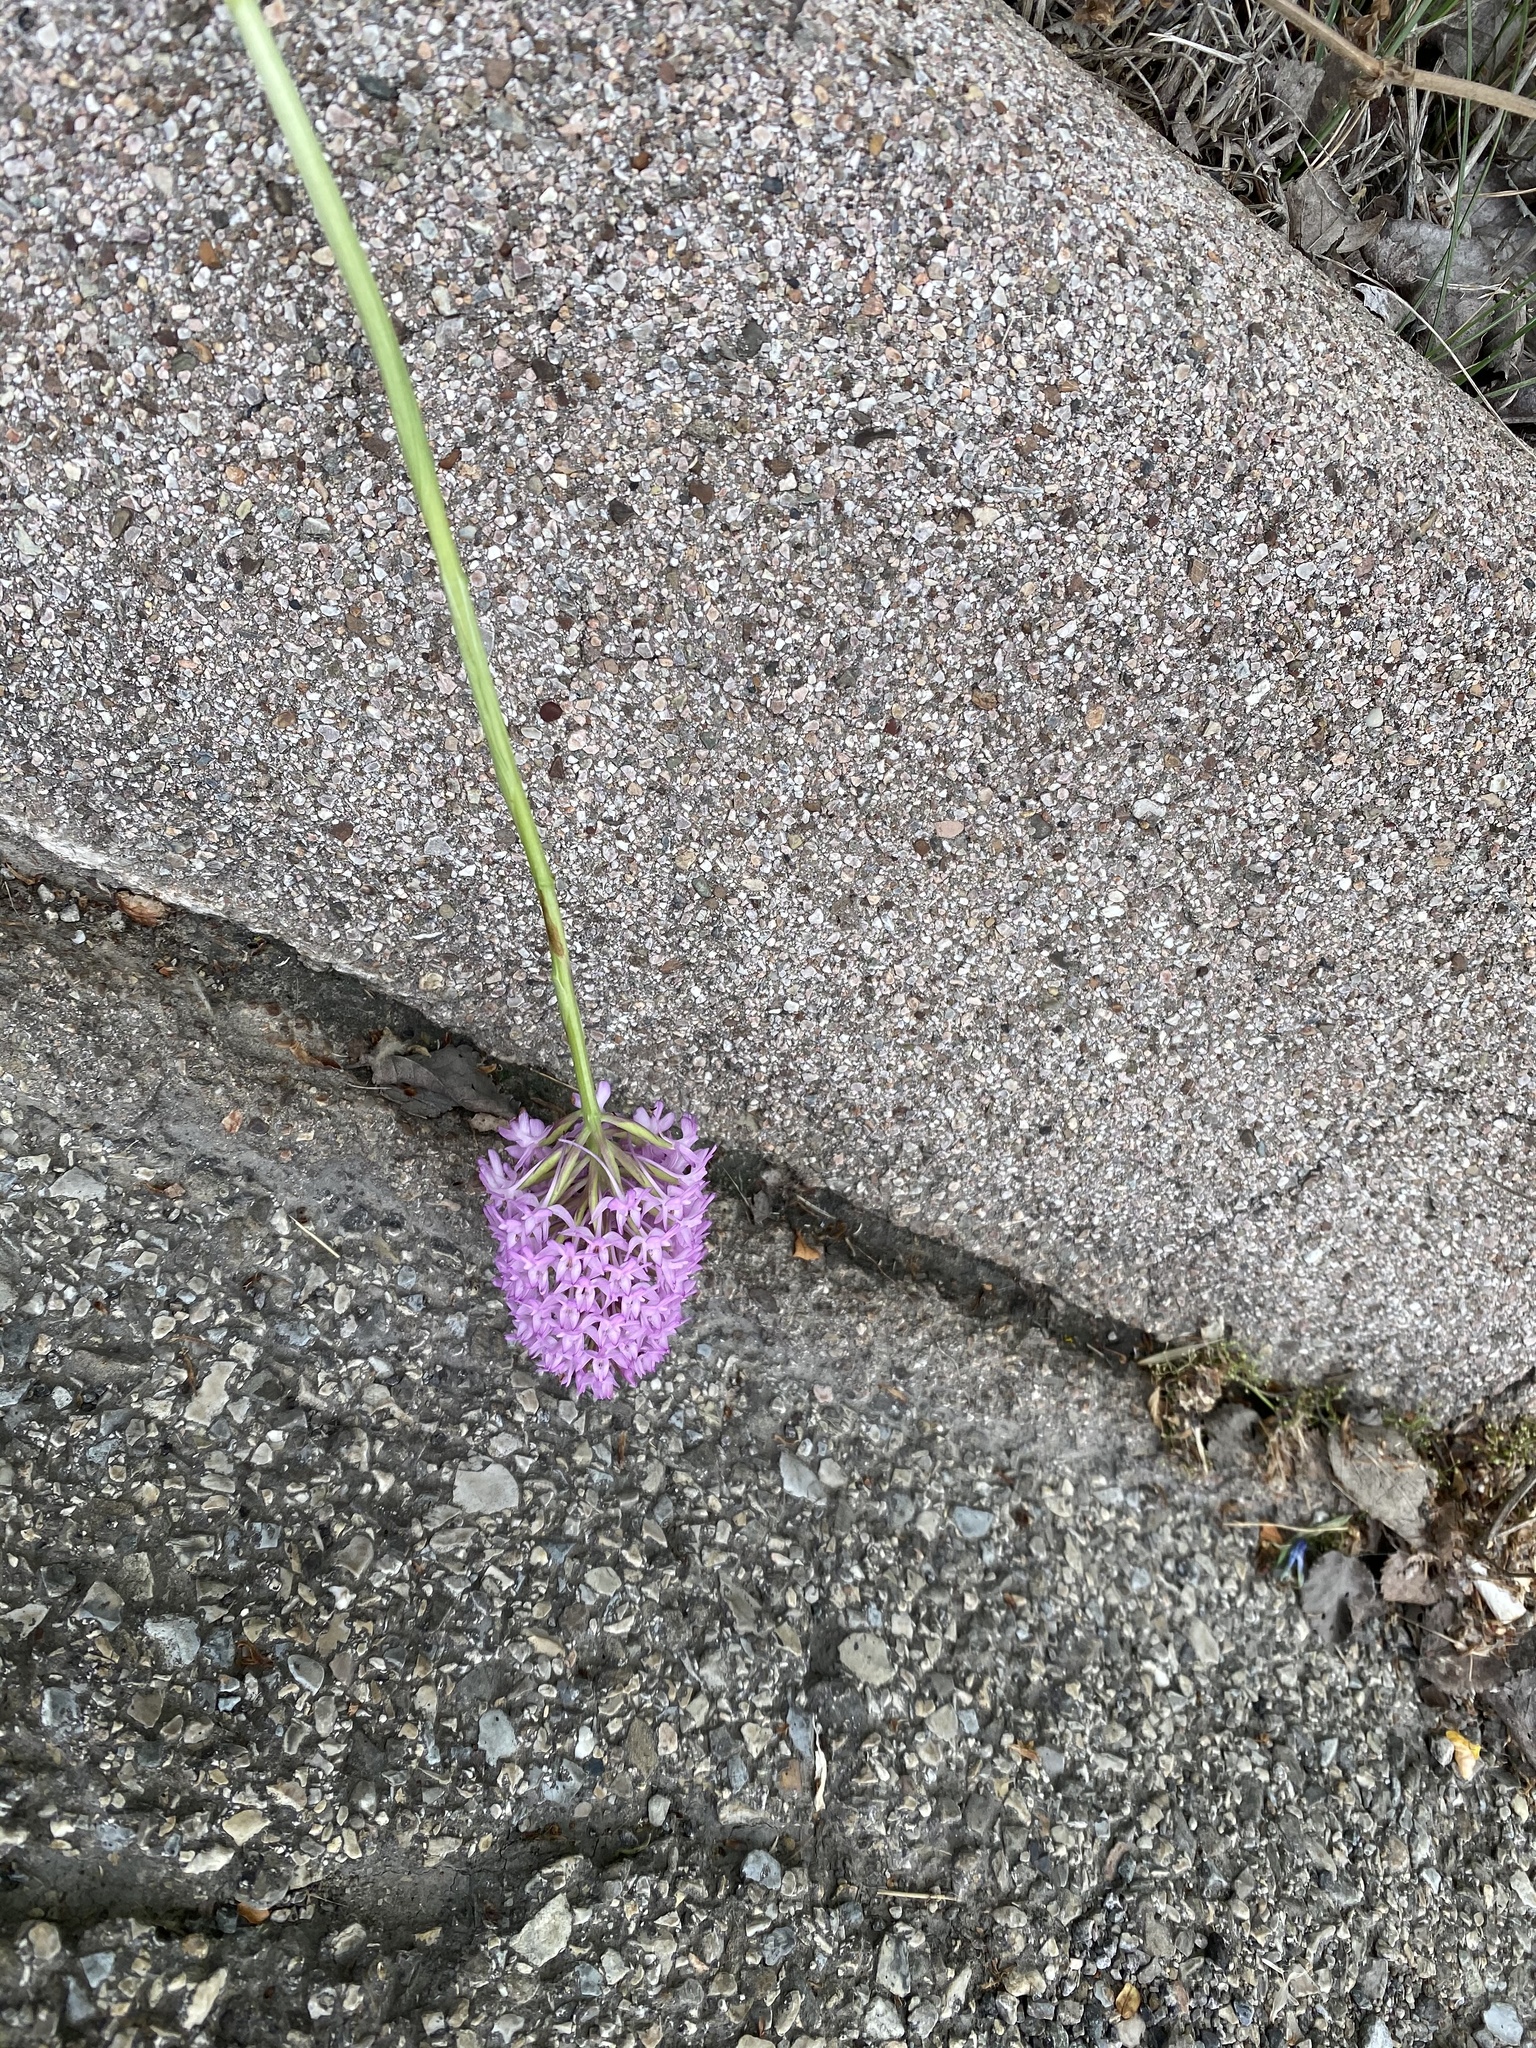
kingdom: Plantae
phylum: Tracheophyta
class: Liliopsida
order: Asparagales
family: Orchidaceae
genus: Anacamptis
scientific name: Anacamptis pyramidalis
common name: Pyramidal orchid
